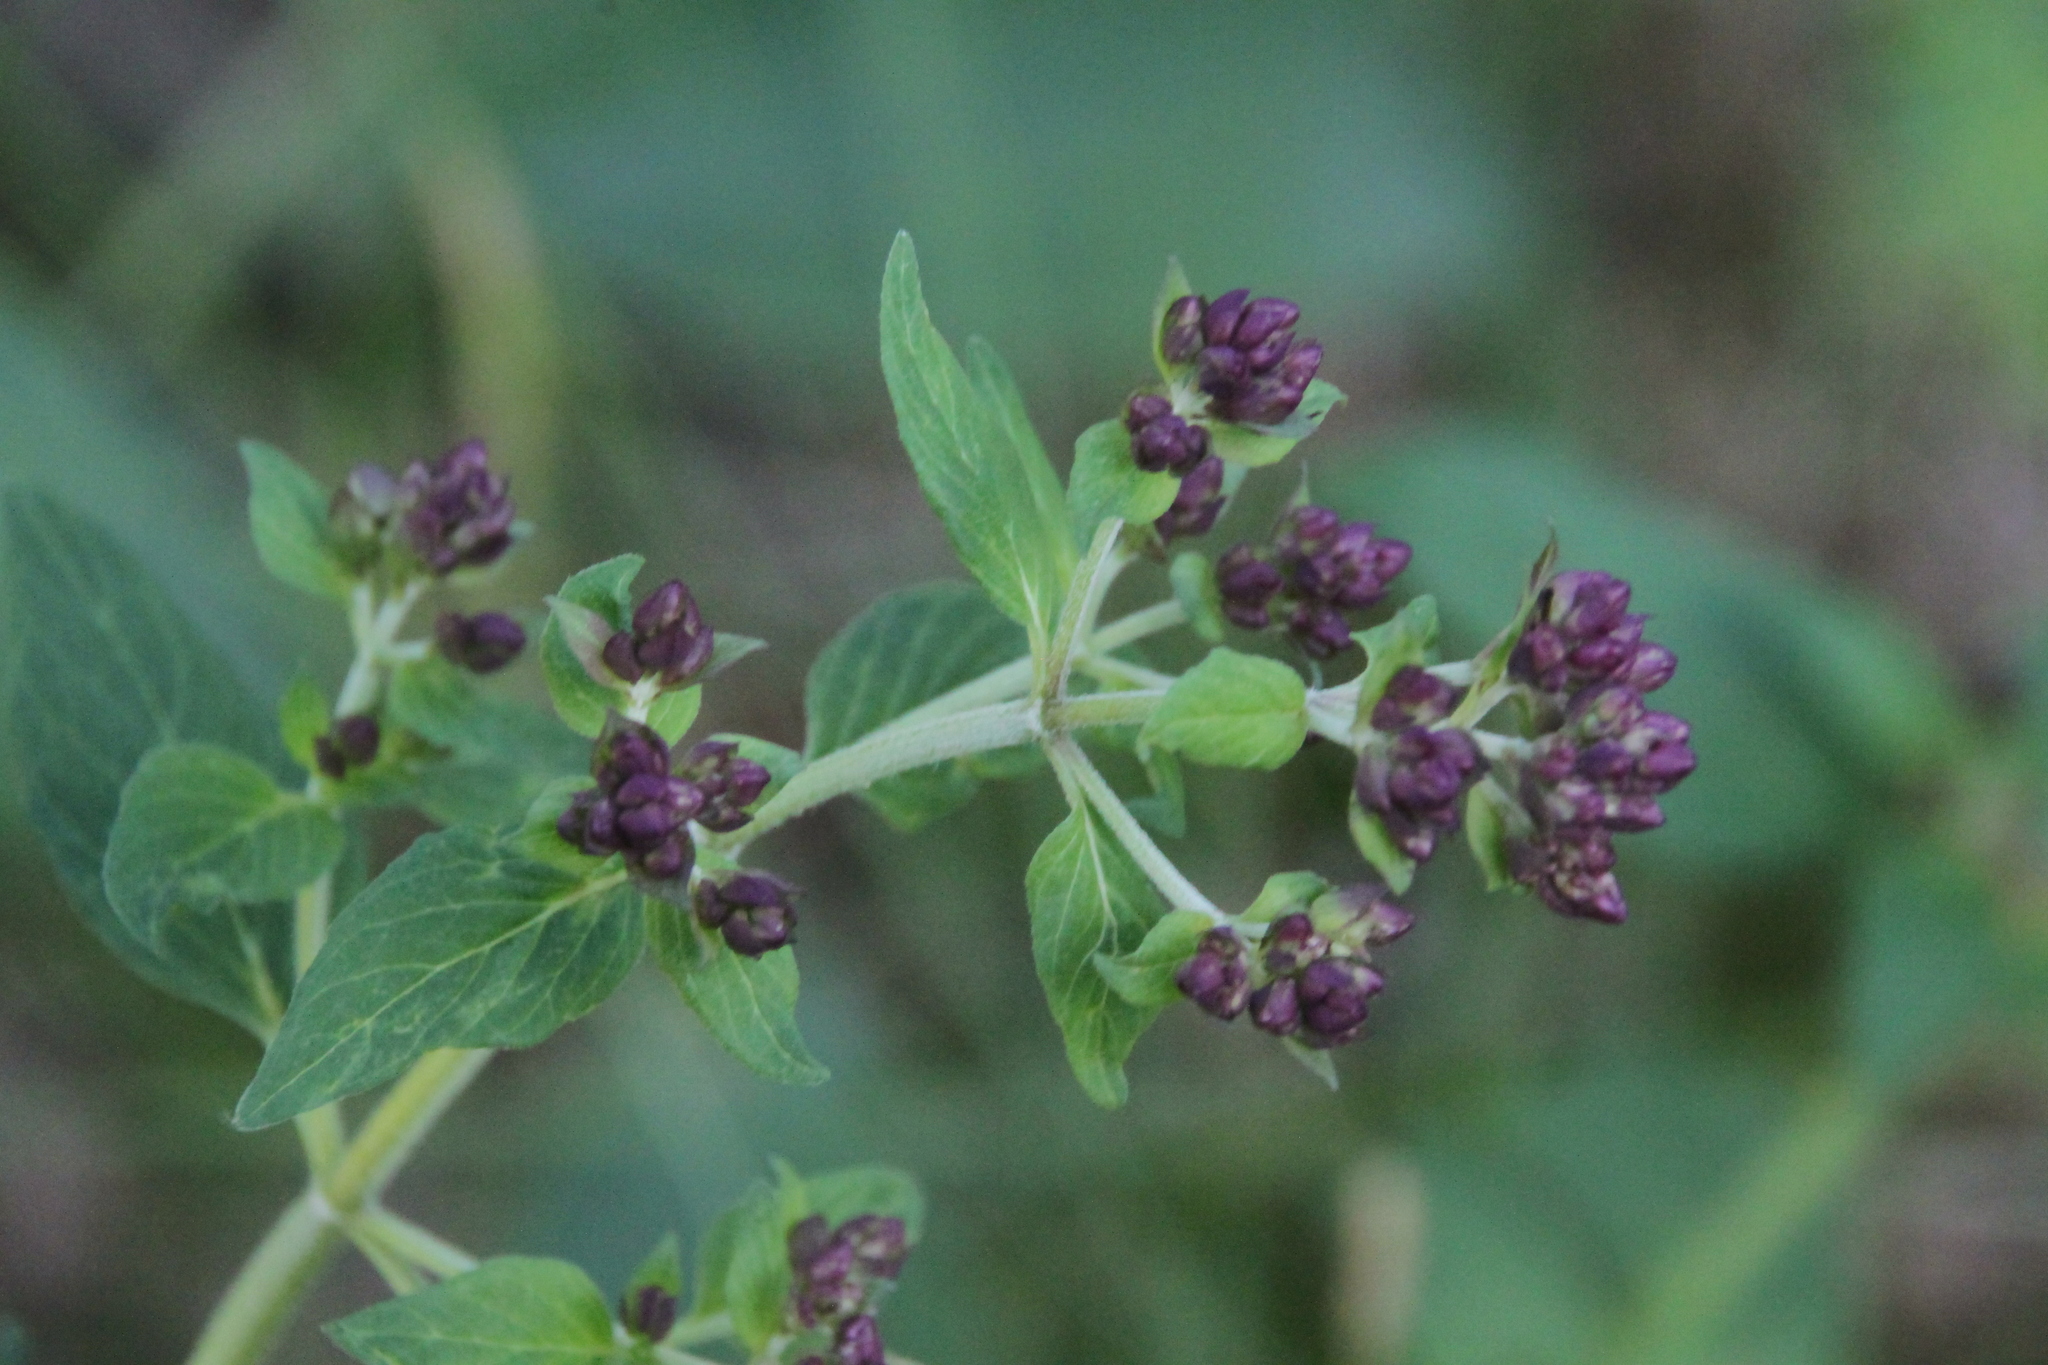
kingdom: Plantae
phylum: Tracheophyta
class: Magnoliopsida
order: Lamiales
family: Lamiaceae
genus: Origanum
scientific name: Origanum vulgare
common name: Wild marjoram
